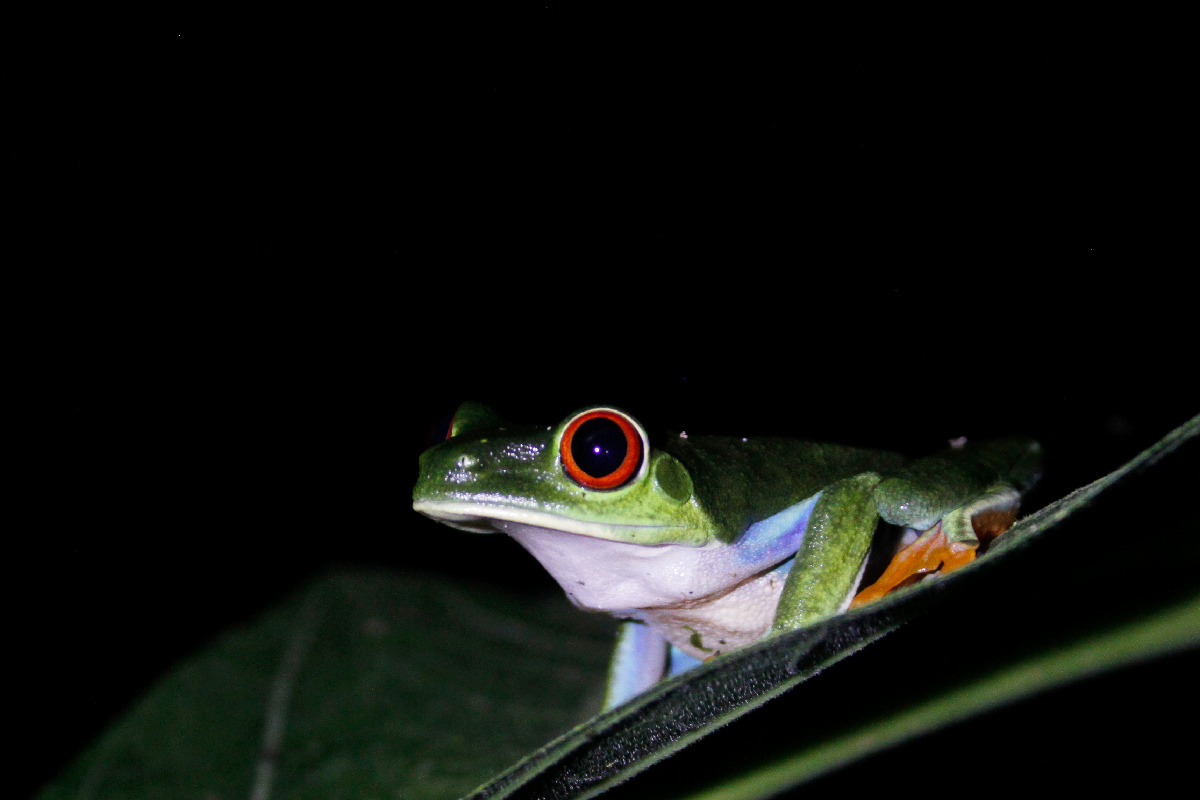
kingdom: Animalia
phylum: Chordata
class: Amphibia
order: Anura
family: Phyllomedusidae
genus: Agalychnis
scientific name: Agalychnis callidryas
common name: Red-eyed treefrog
